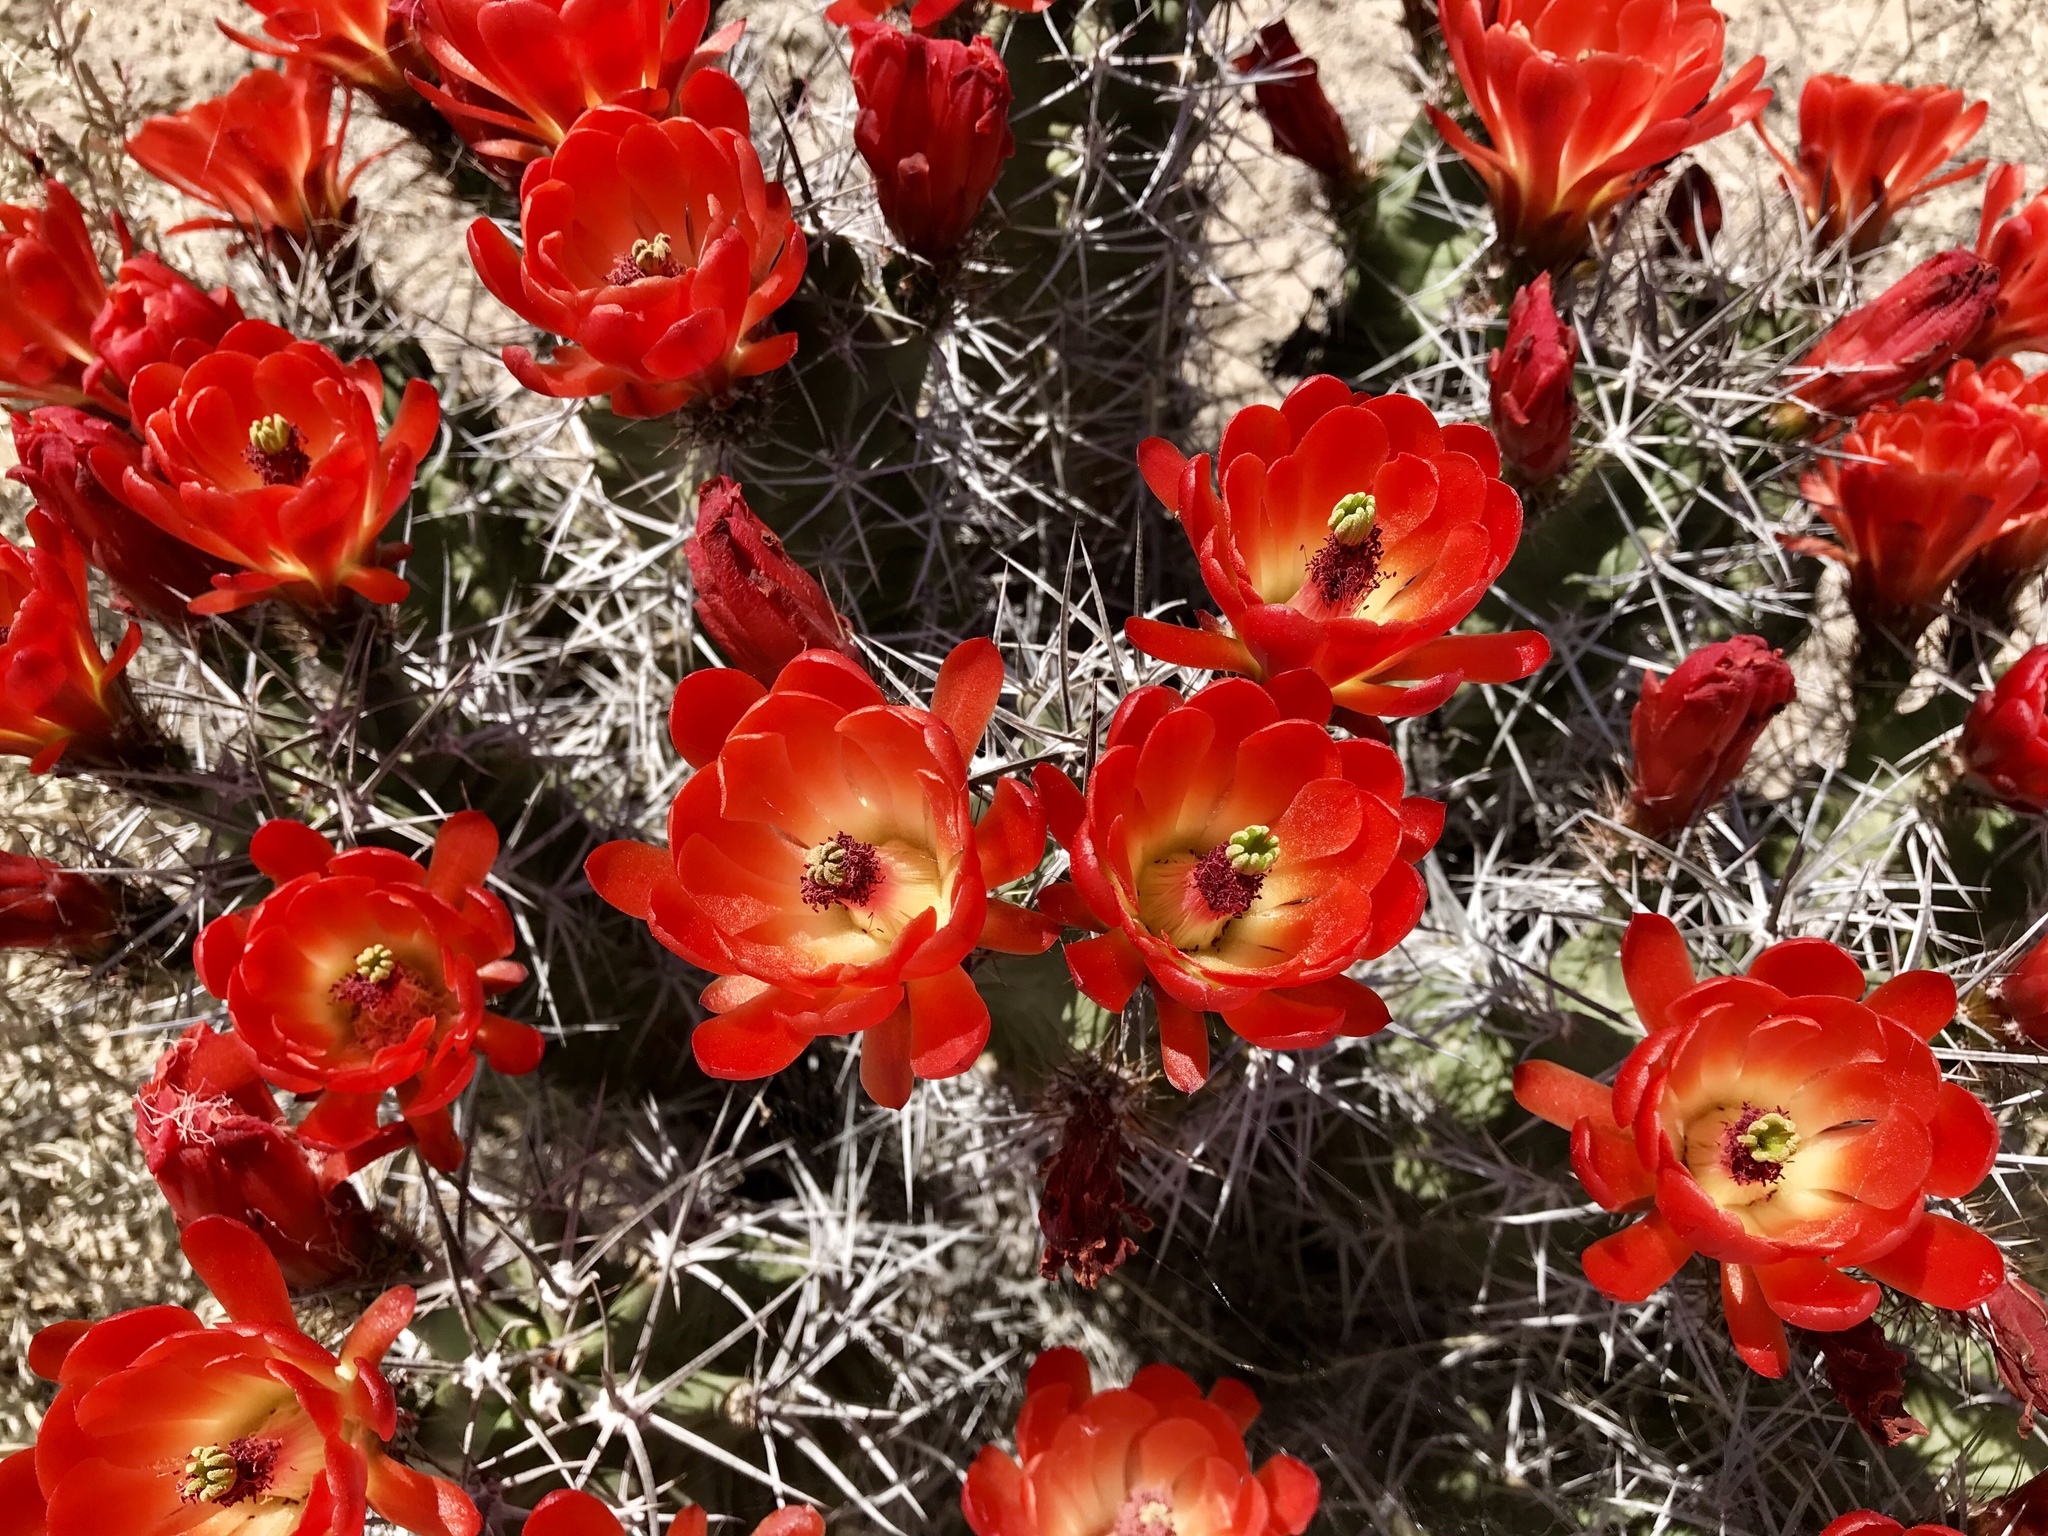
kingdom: Plantae
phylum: Tracheophyta
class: Magnoliopsida
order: Caryophyllales
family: Cactaceae
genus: Echinocereus
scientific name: Echinocereus triglochidiatus
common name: Claretcup hedgehog
